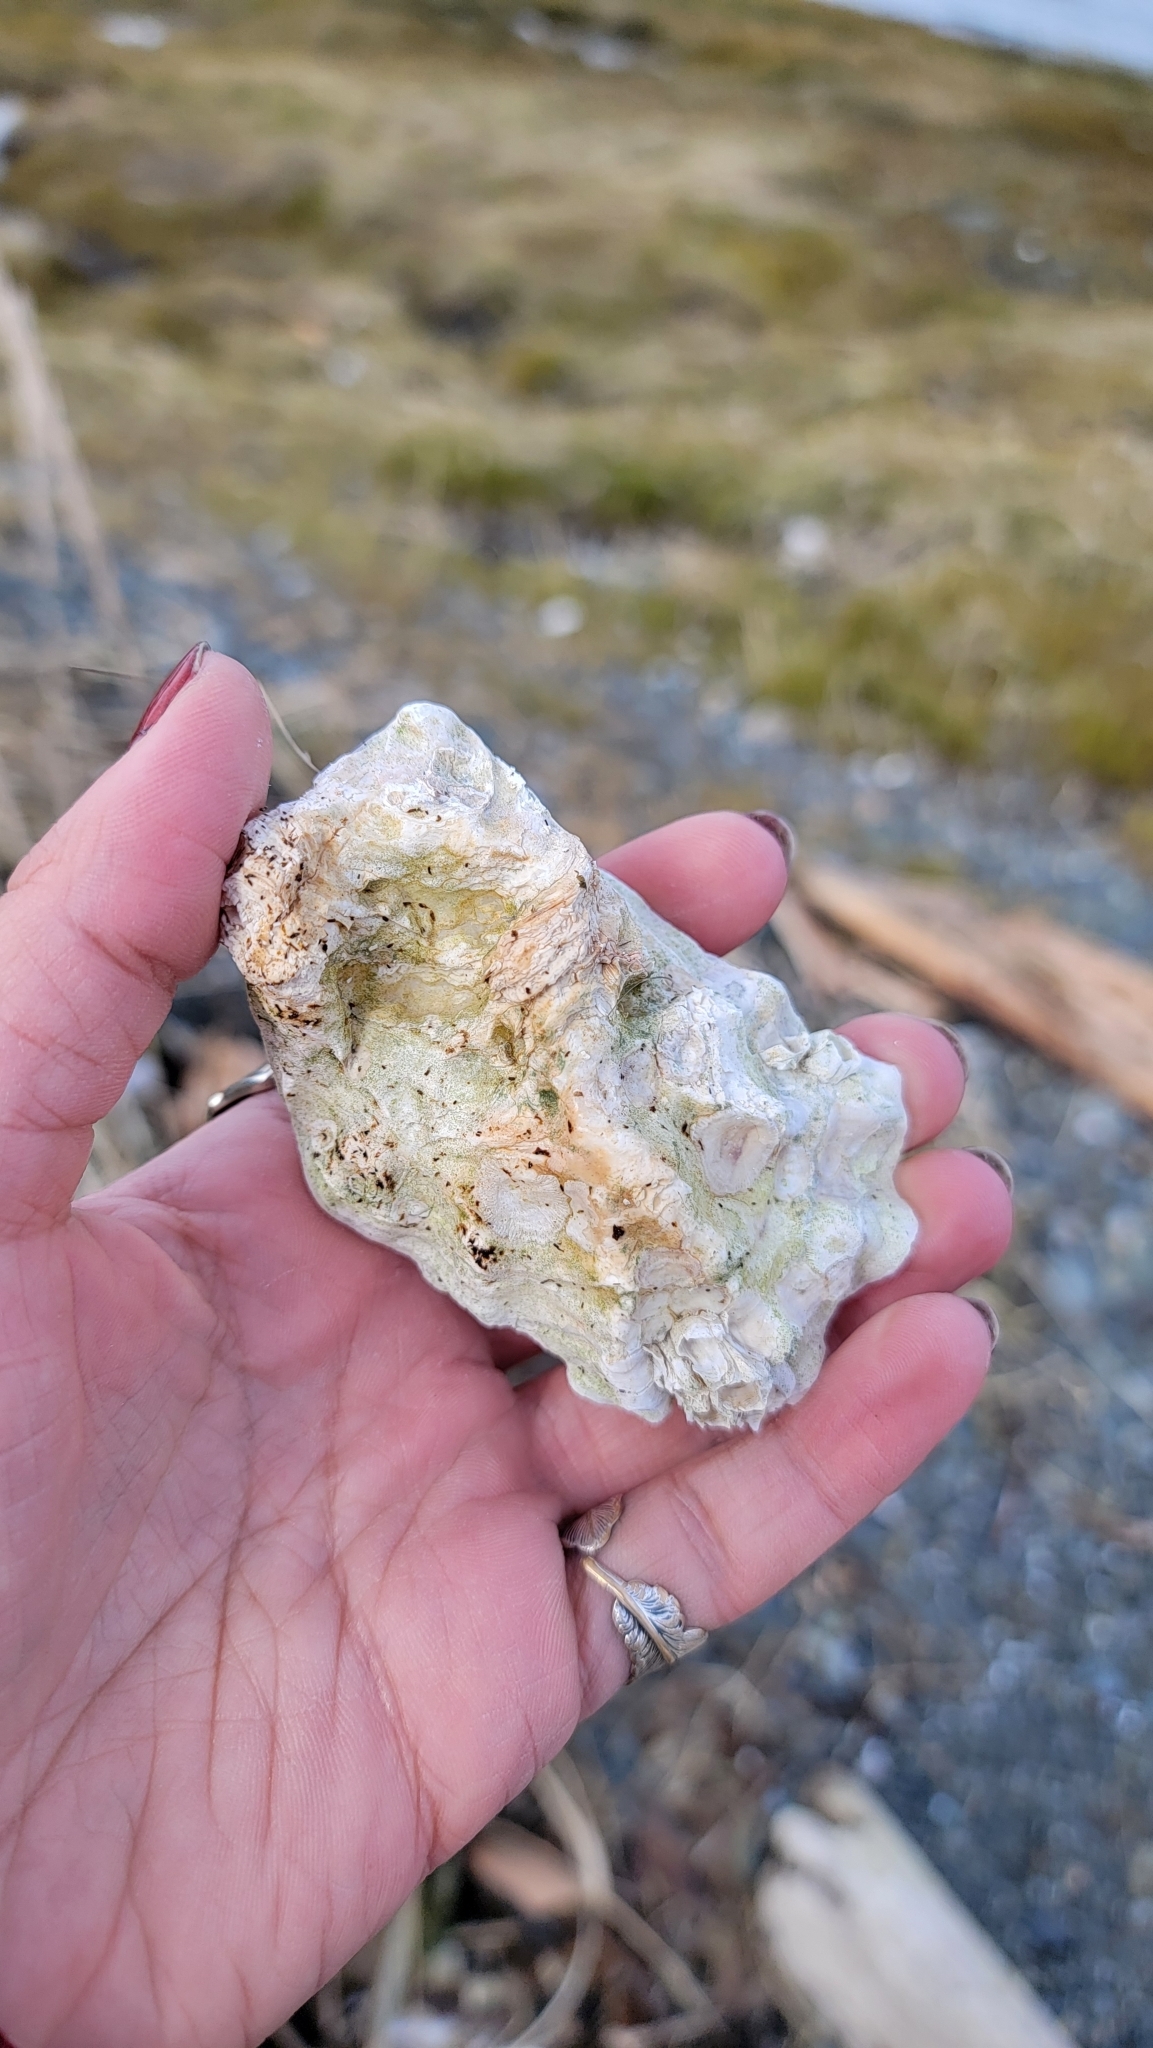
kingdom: Animalia
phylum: Mollusca
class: Bivalvia
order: Ostreida
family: Ostreidae
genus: Magallana
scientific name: Magallana gigas
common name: Pacific oyster
